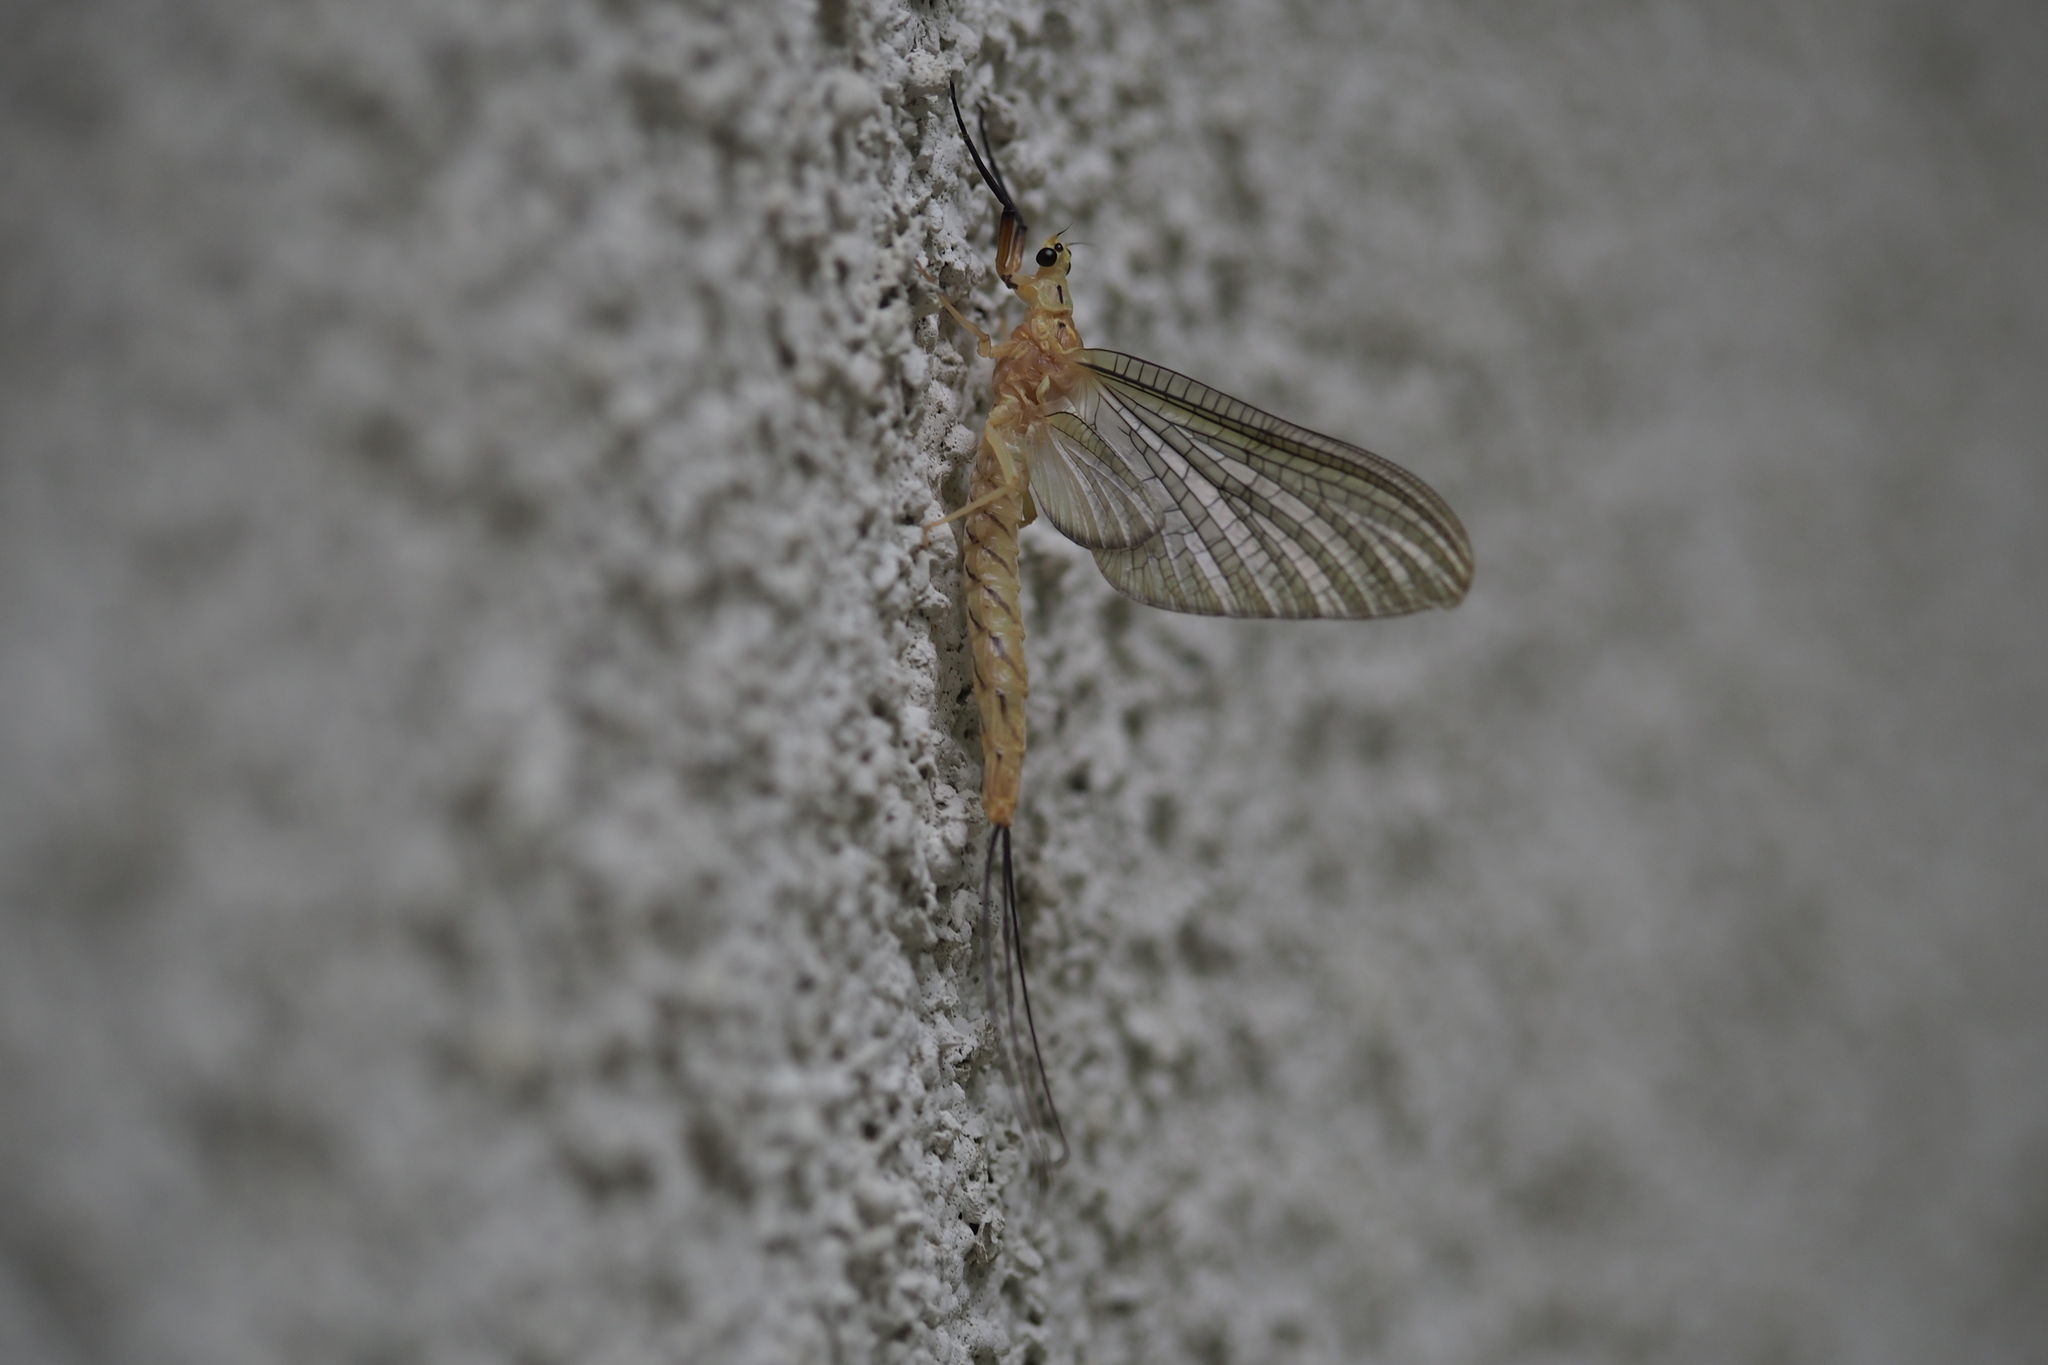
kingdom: Animalia
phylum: Arthropoda
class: Insecta
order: Ephemeroptera
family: Ephemeridae
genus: Ephemera
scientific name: Ephemera japonica
